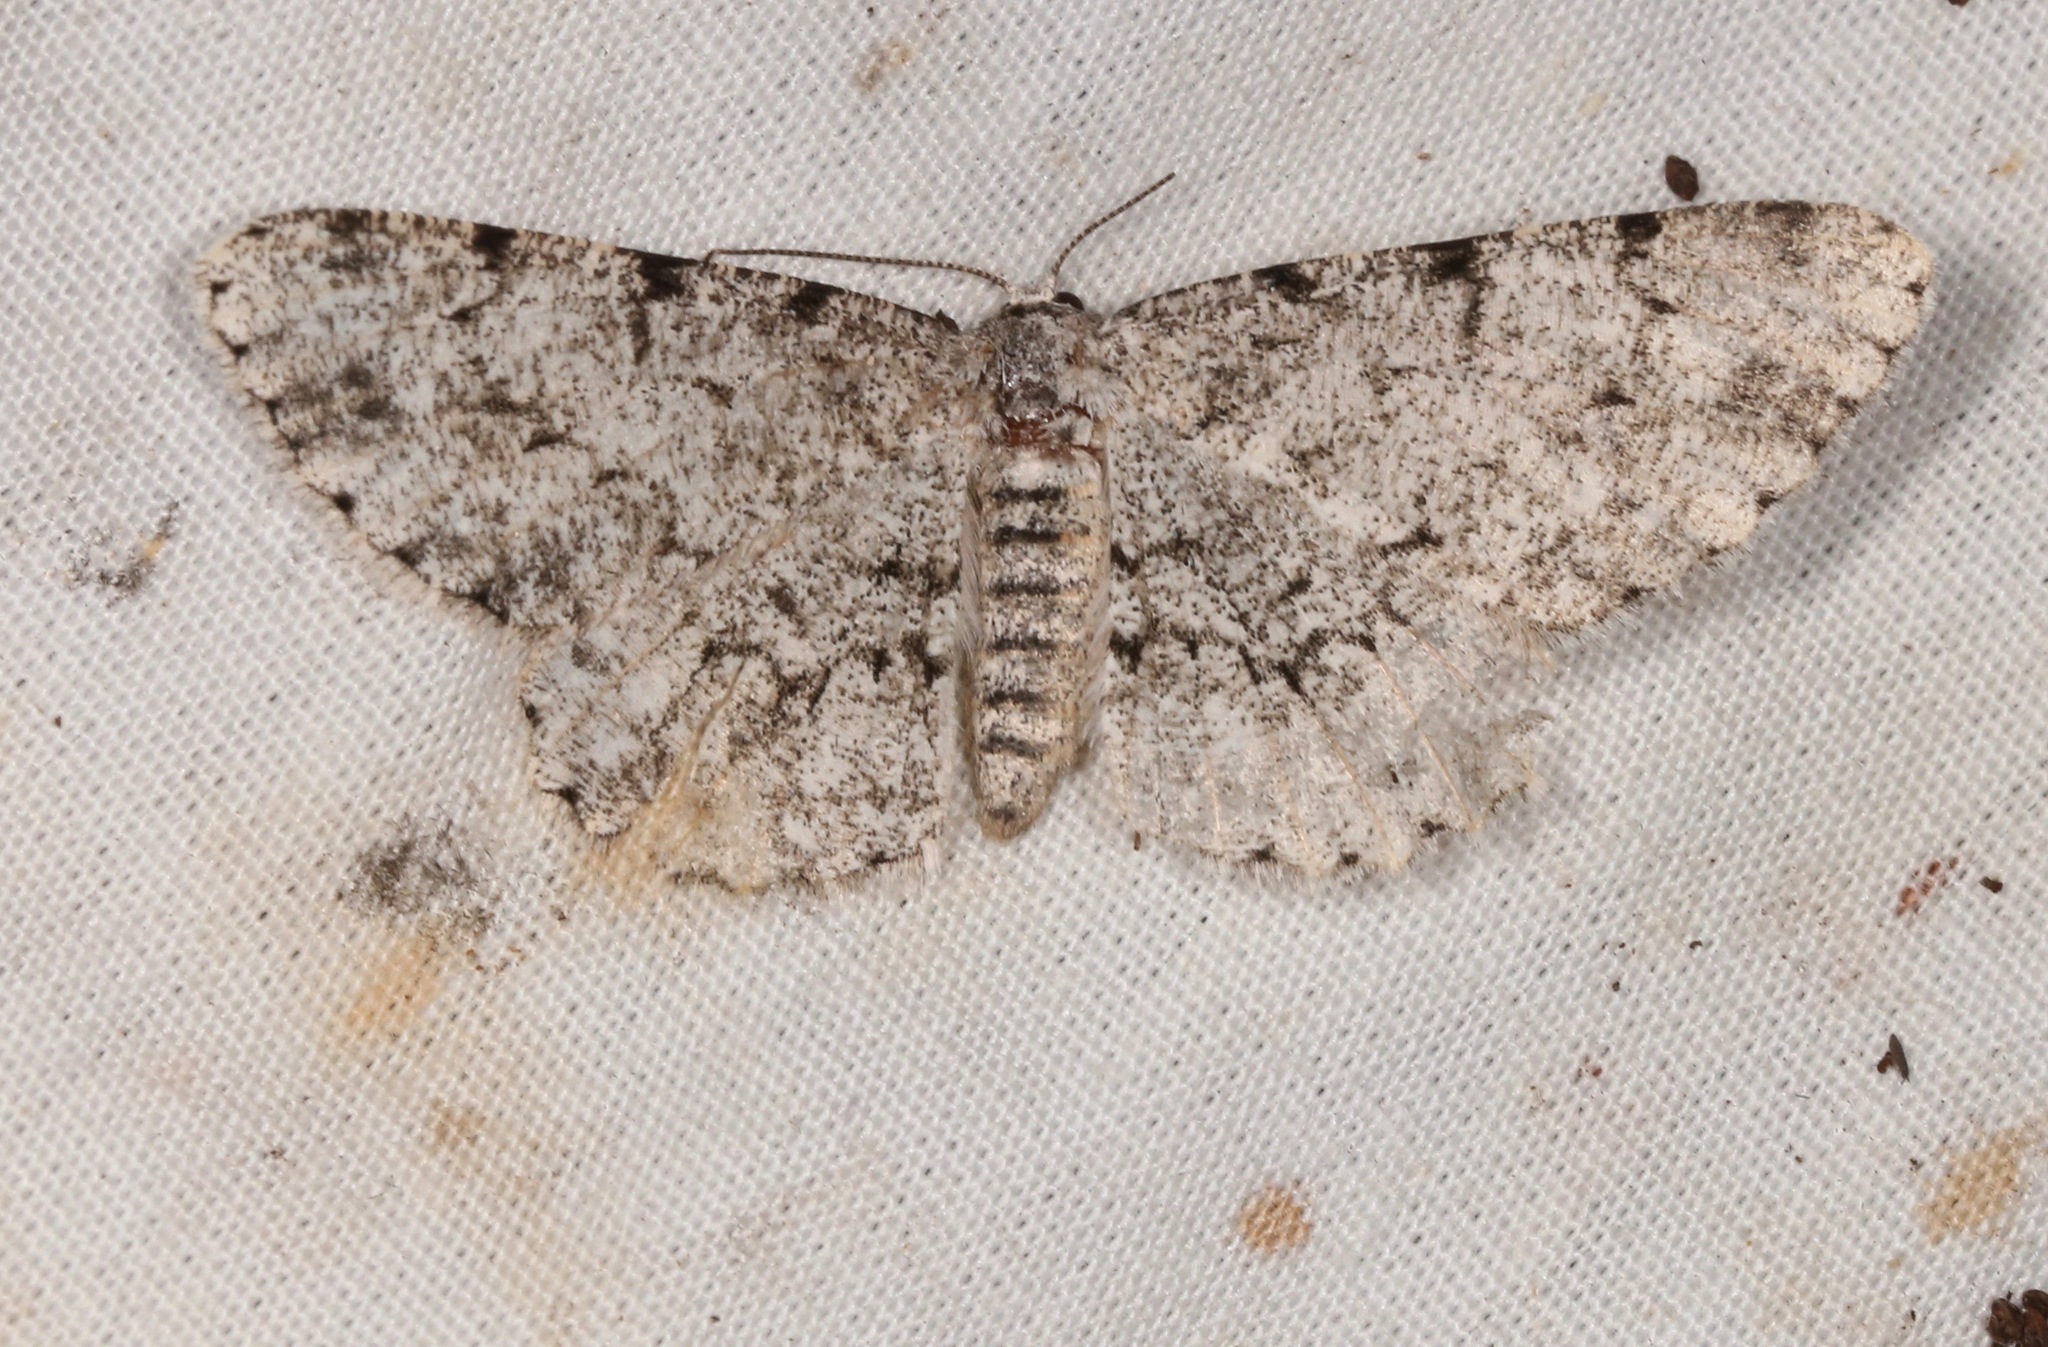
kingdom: Animalia
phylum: Arthropoda
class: Insecta
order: Lepidoptera
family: Geometridae
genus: Glena
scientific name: Glena grisearia
